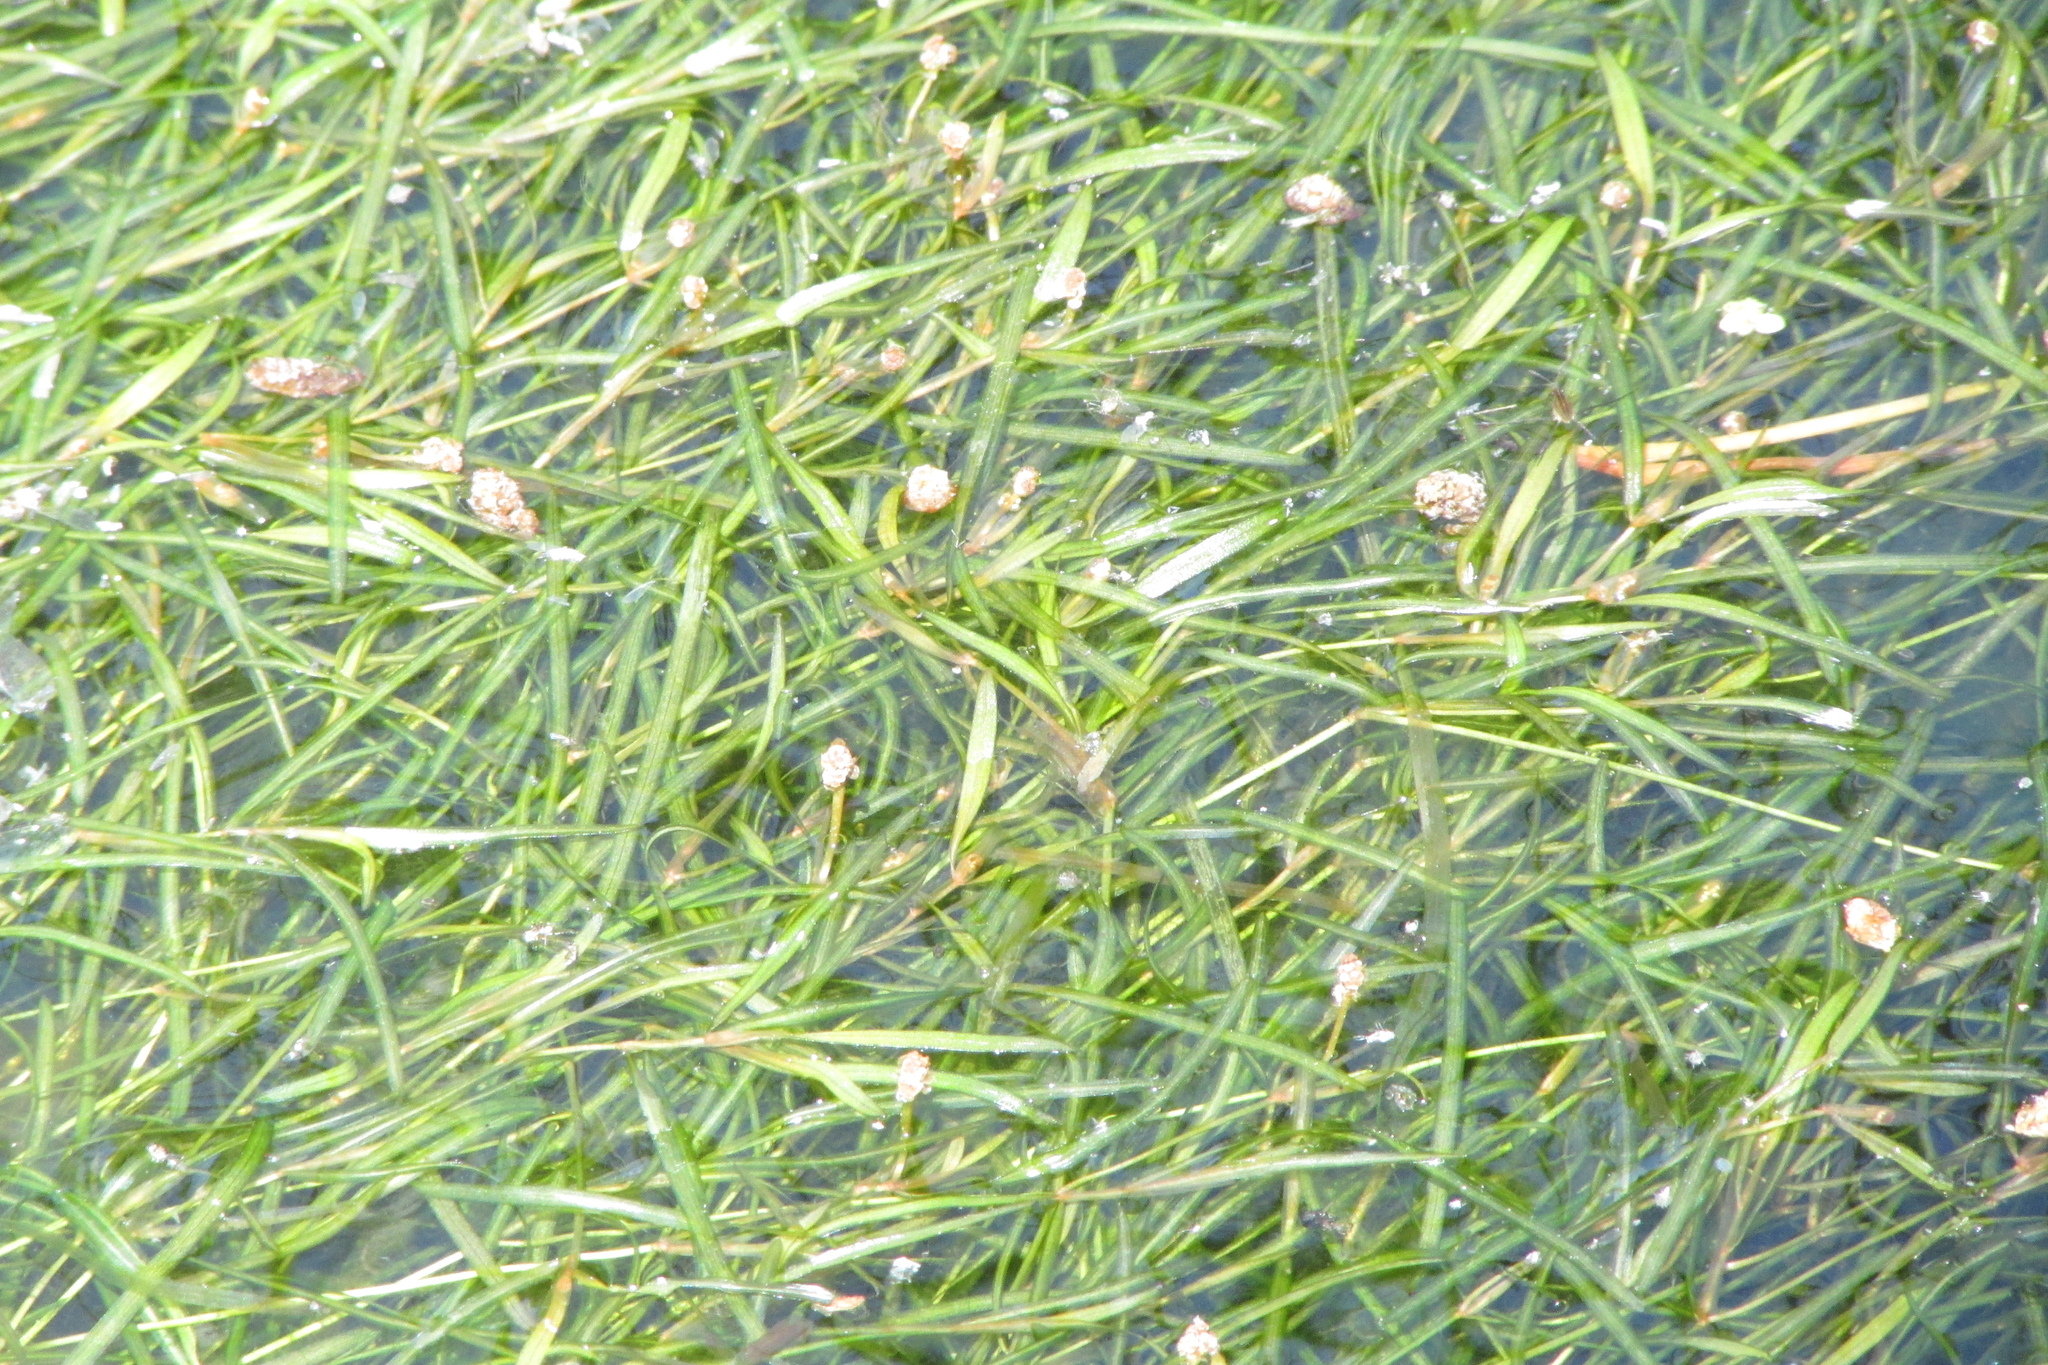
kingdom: Plantae
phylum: Tracheophyta
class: Liliopsida
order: Alismatales
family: Potamogetonaceae
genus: Potamogeton
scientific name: Potamogeton berchtoldii
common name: Small pondweed
